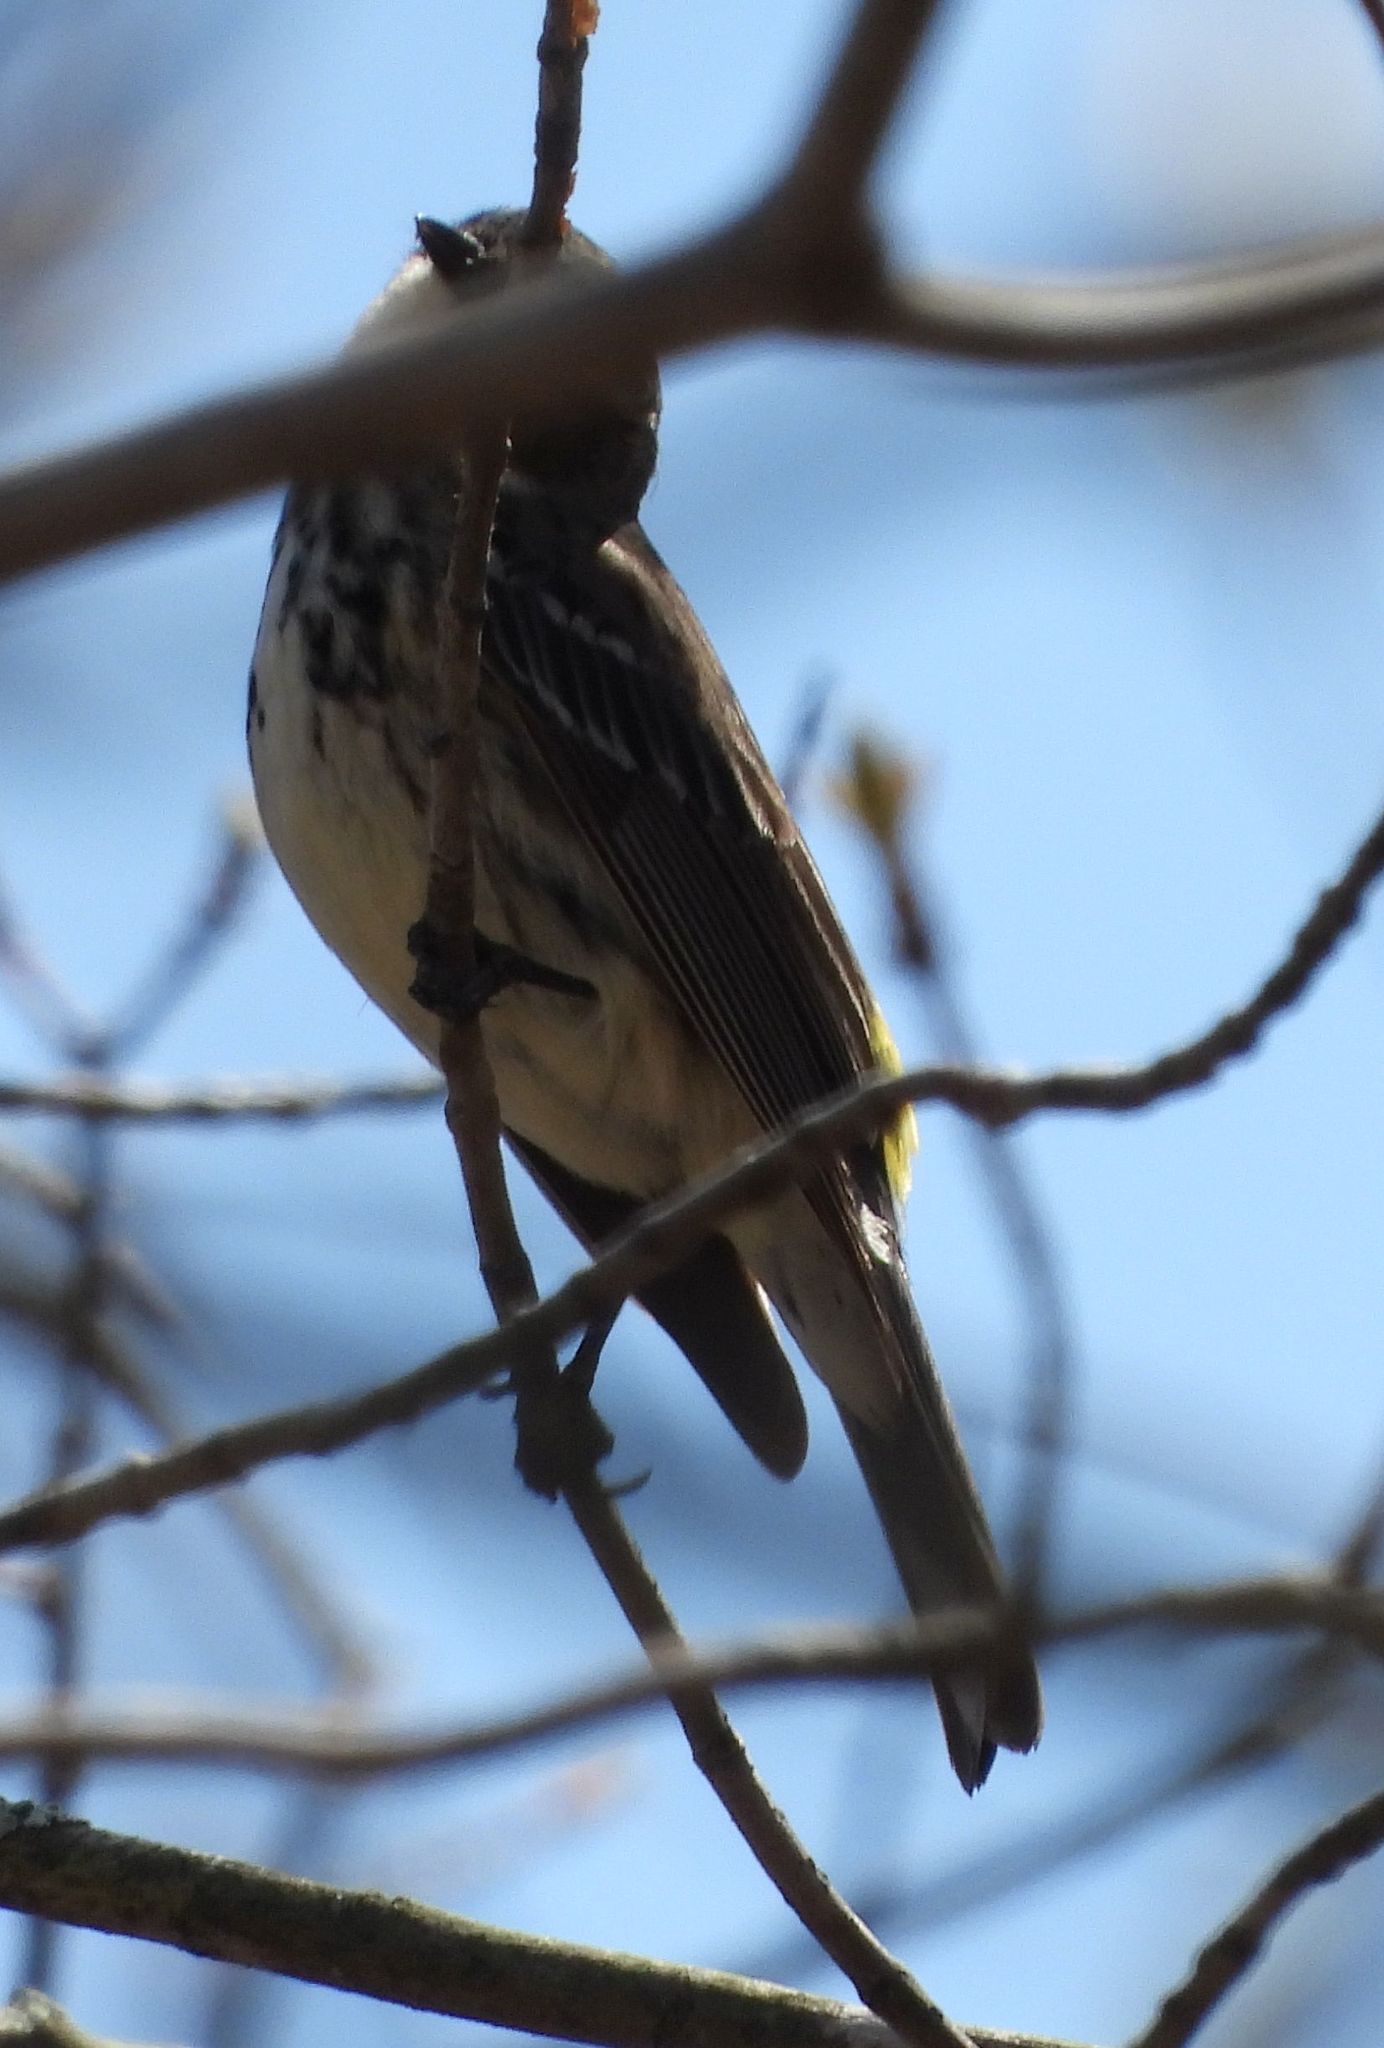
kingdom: Animalia
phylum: Chordata
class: Aves
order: Passeriformes
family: Parulidae
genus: Setophaga
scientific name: Setophaga coronata
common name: Myrtle warbler
